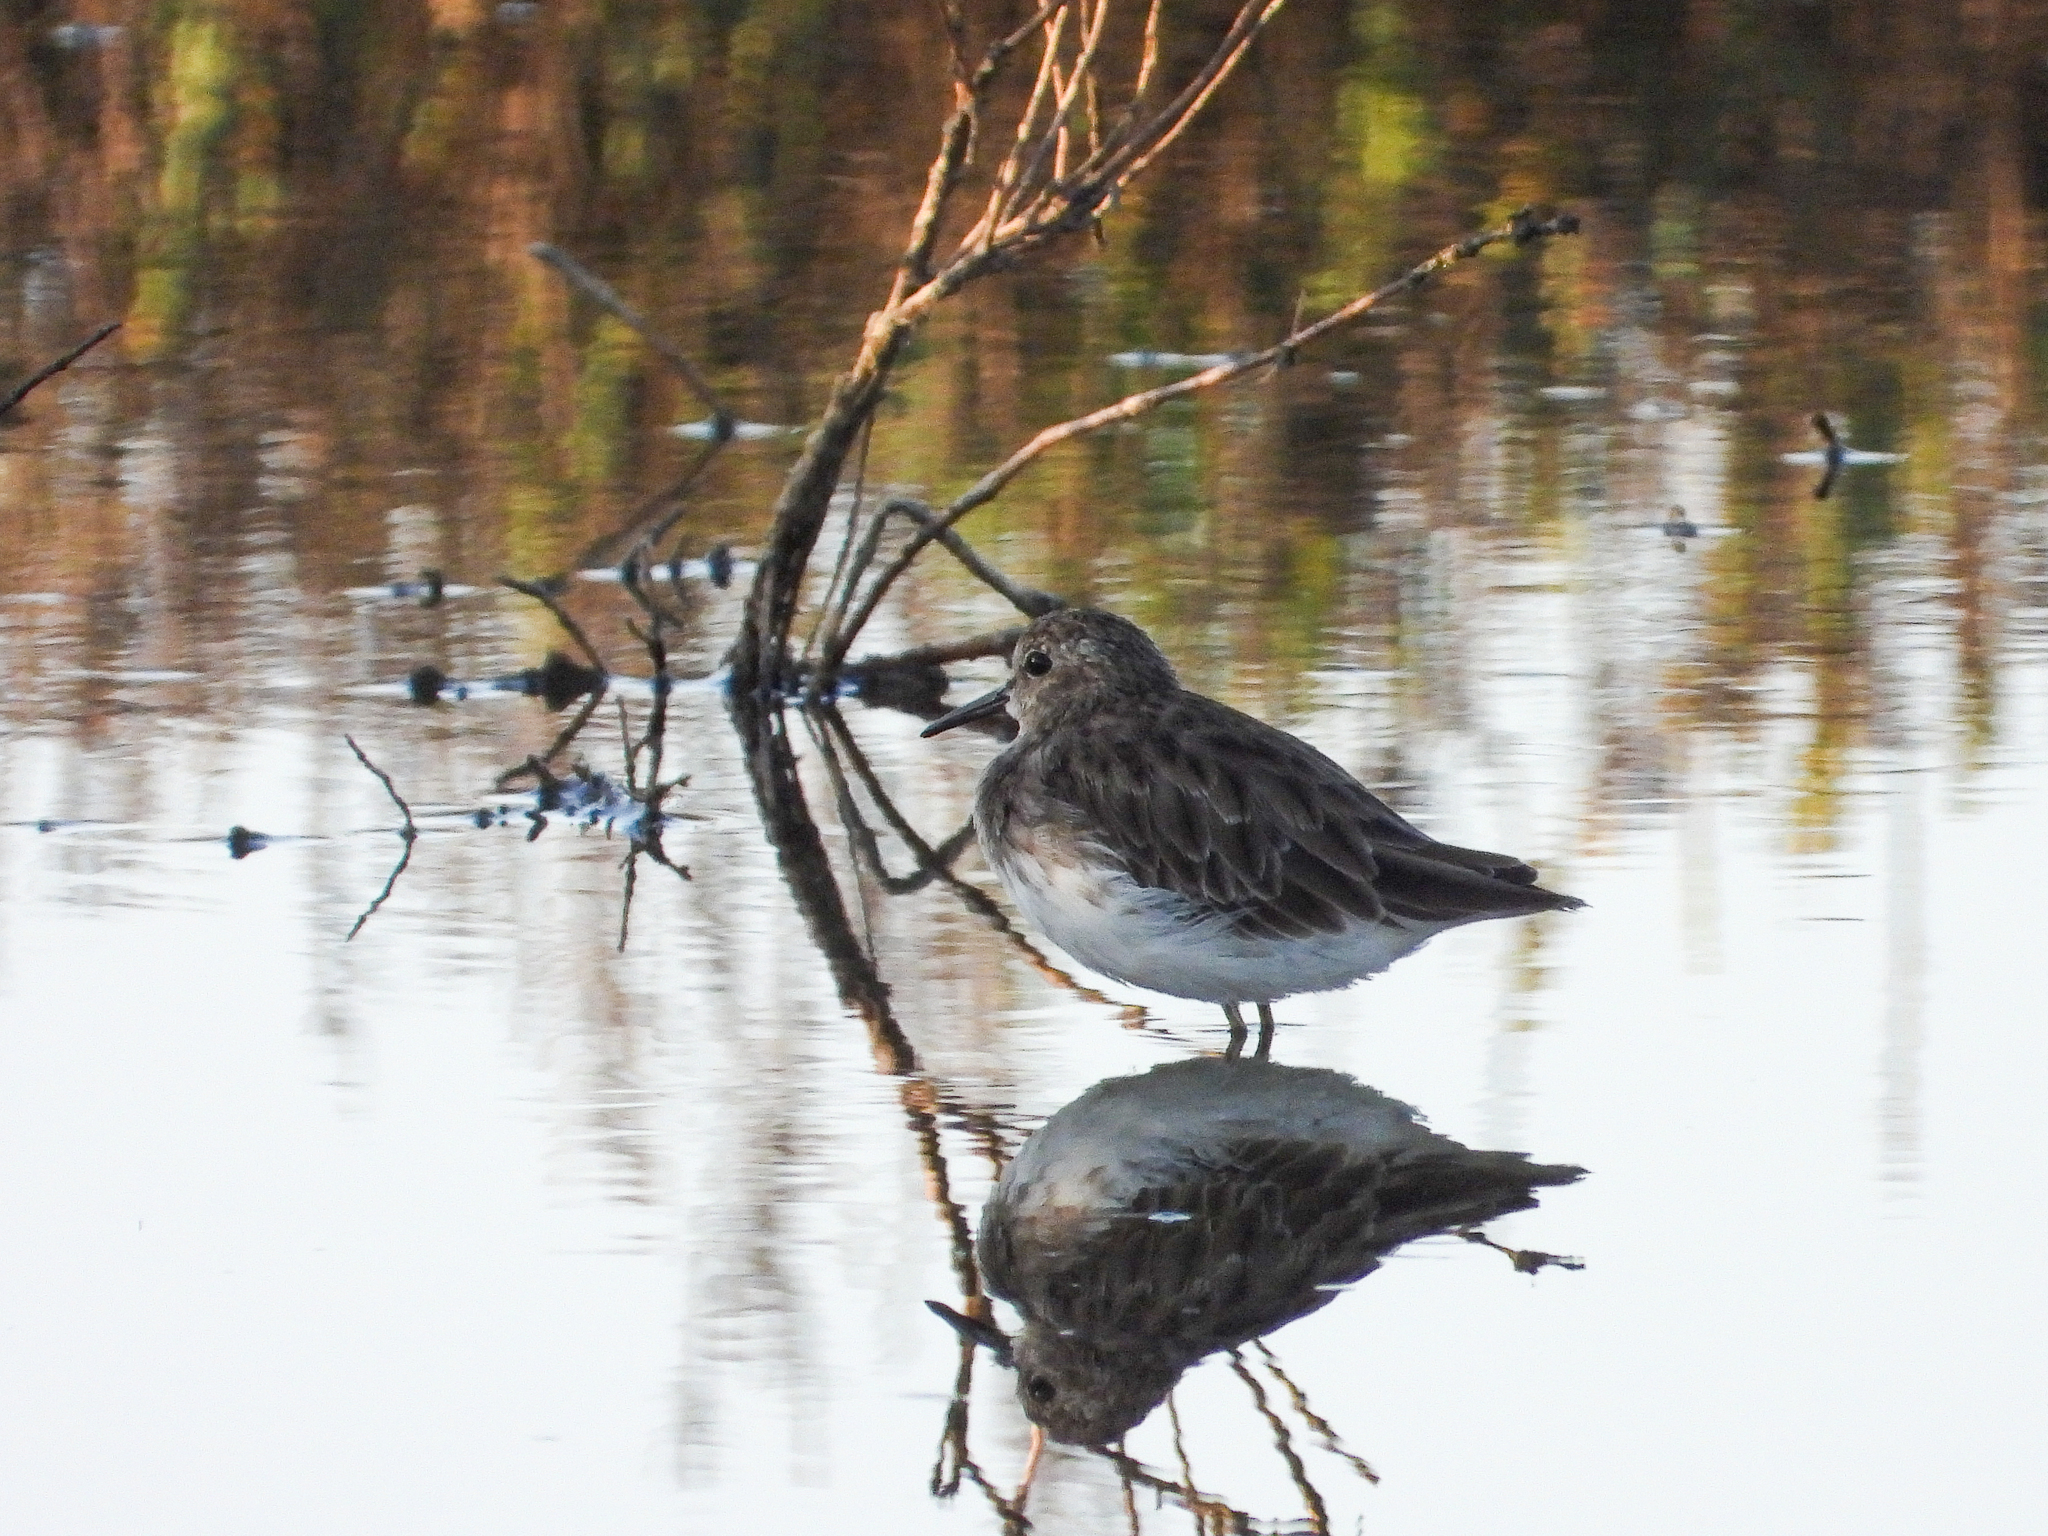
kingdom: Animalia
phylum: Chordata
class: Aves
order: Charadriiformes
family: Scolopacidae
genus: Calidris
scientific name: Calidris minutilla
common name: Least sandpiper
